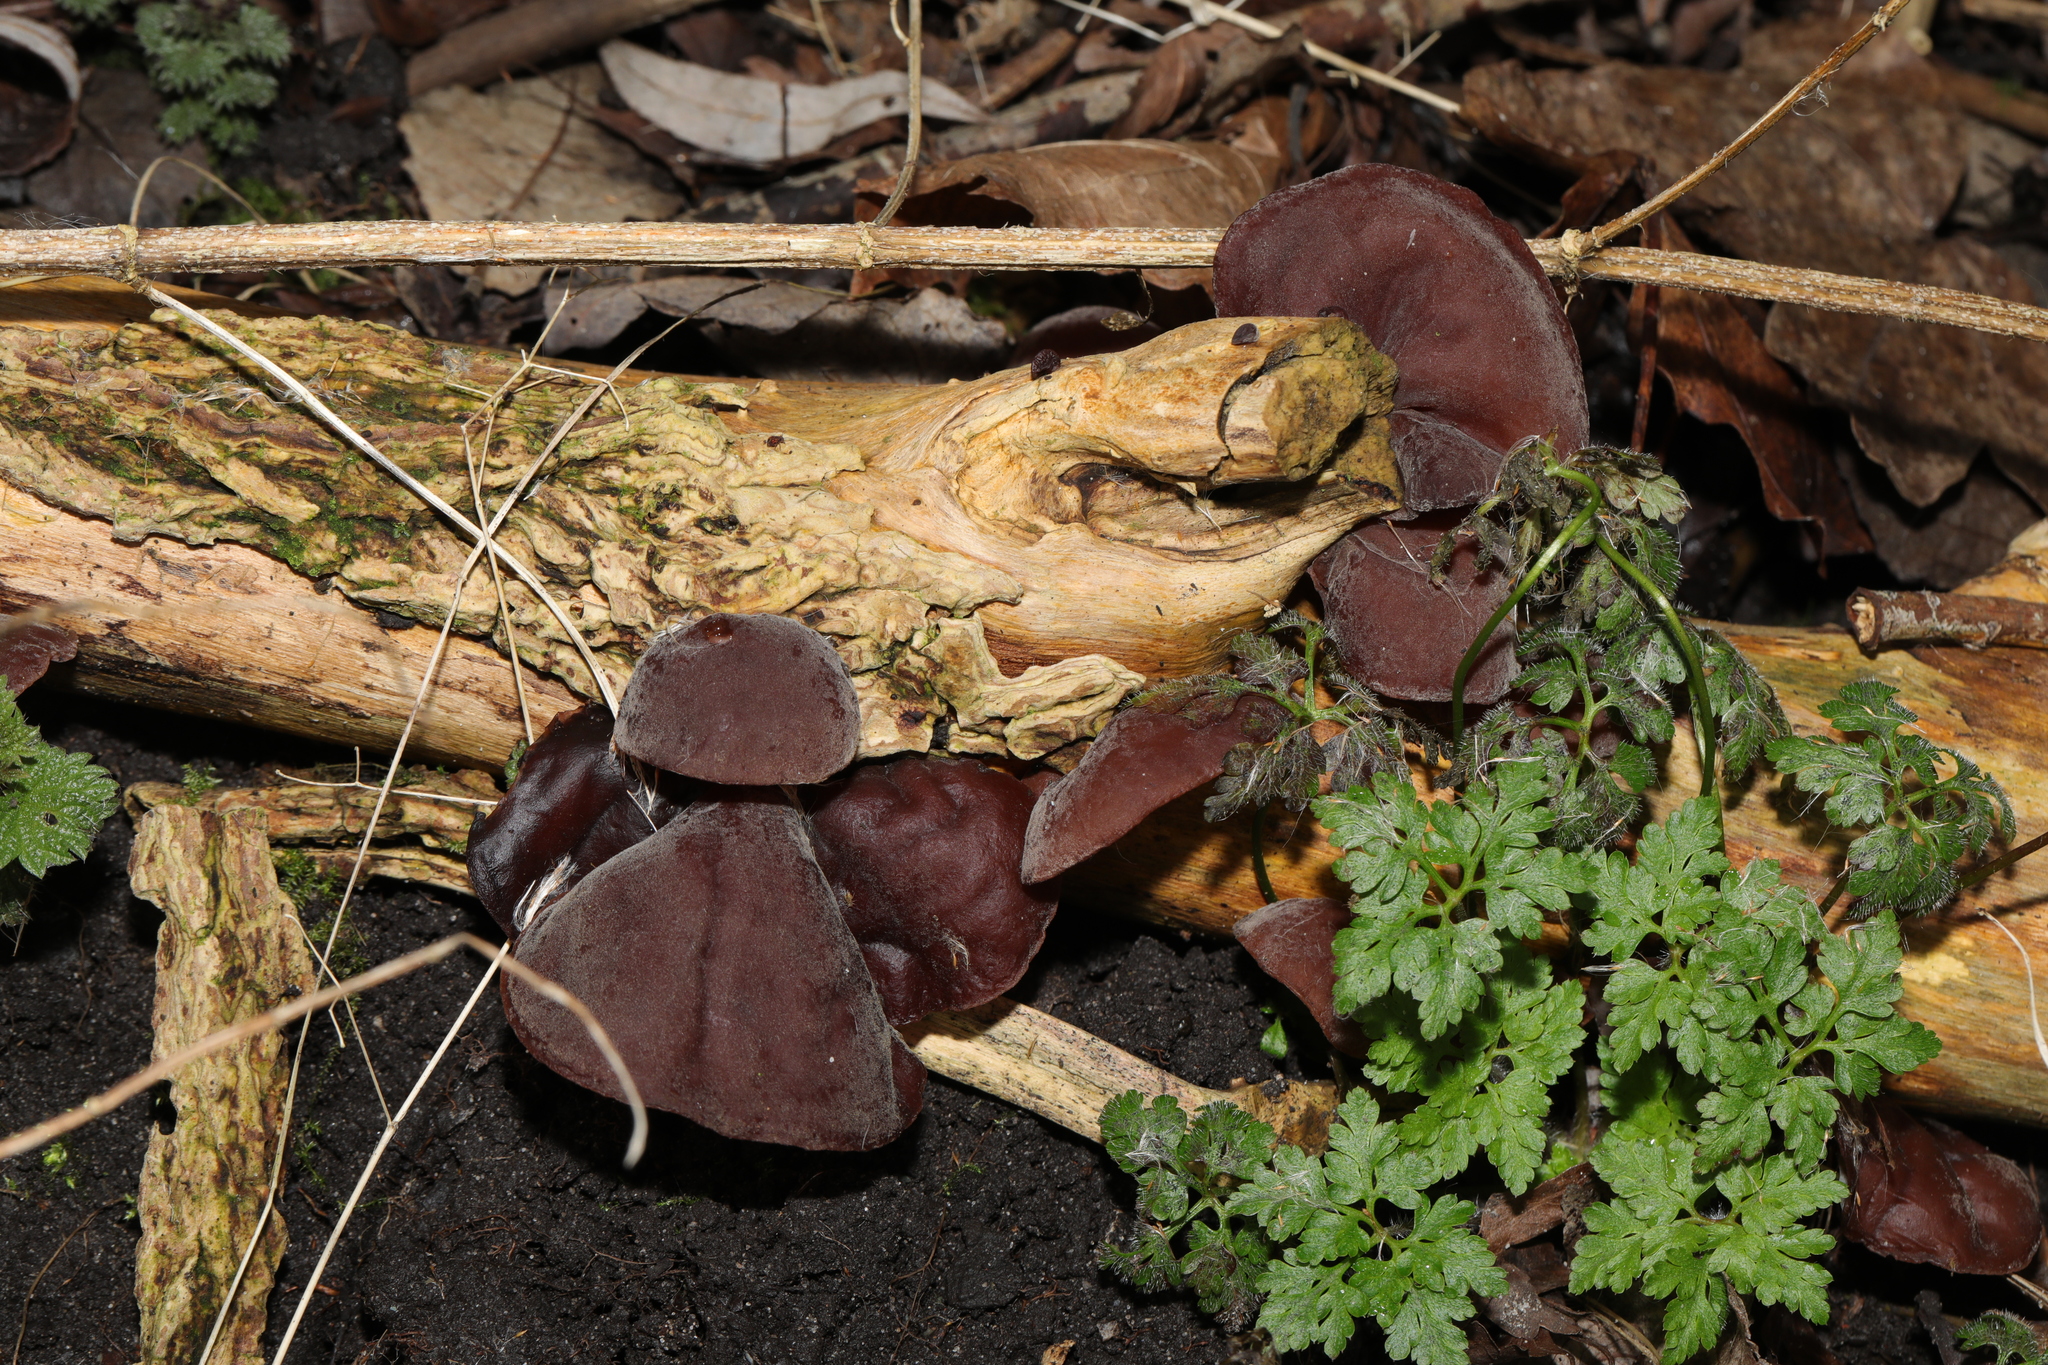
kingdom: Fungi
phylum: Basidiomycota
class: Agaricomycetes
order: Auriculariales
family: Auriculariaceae
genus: Auricularia
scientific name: Auricularia auricula-judae
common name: Jelly ear
